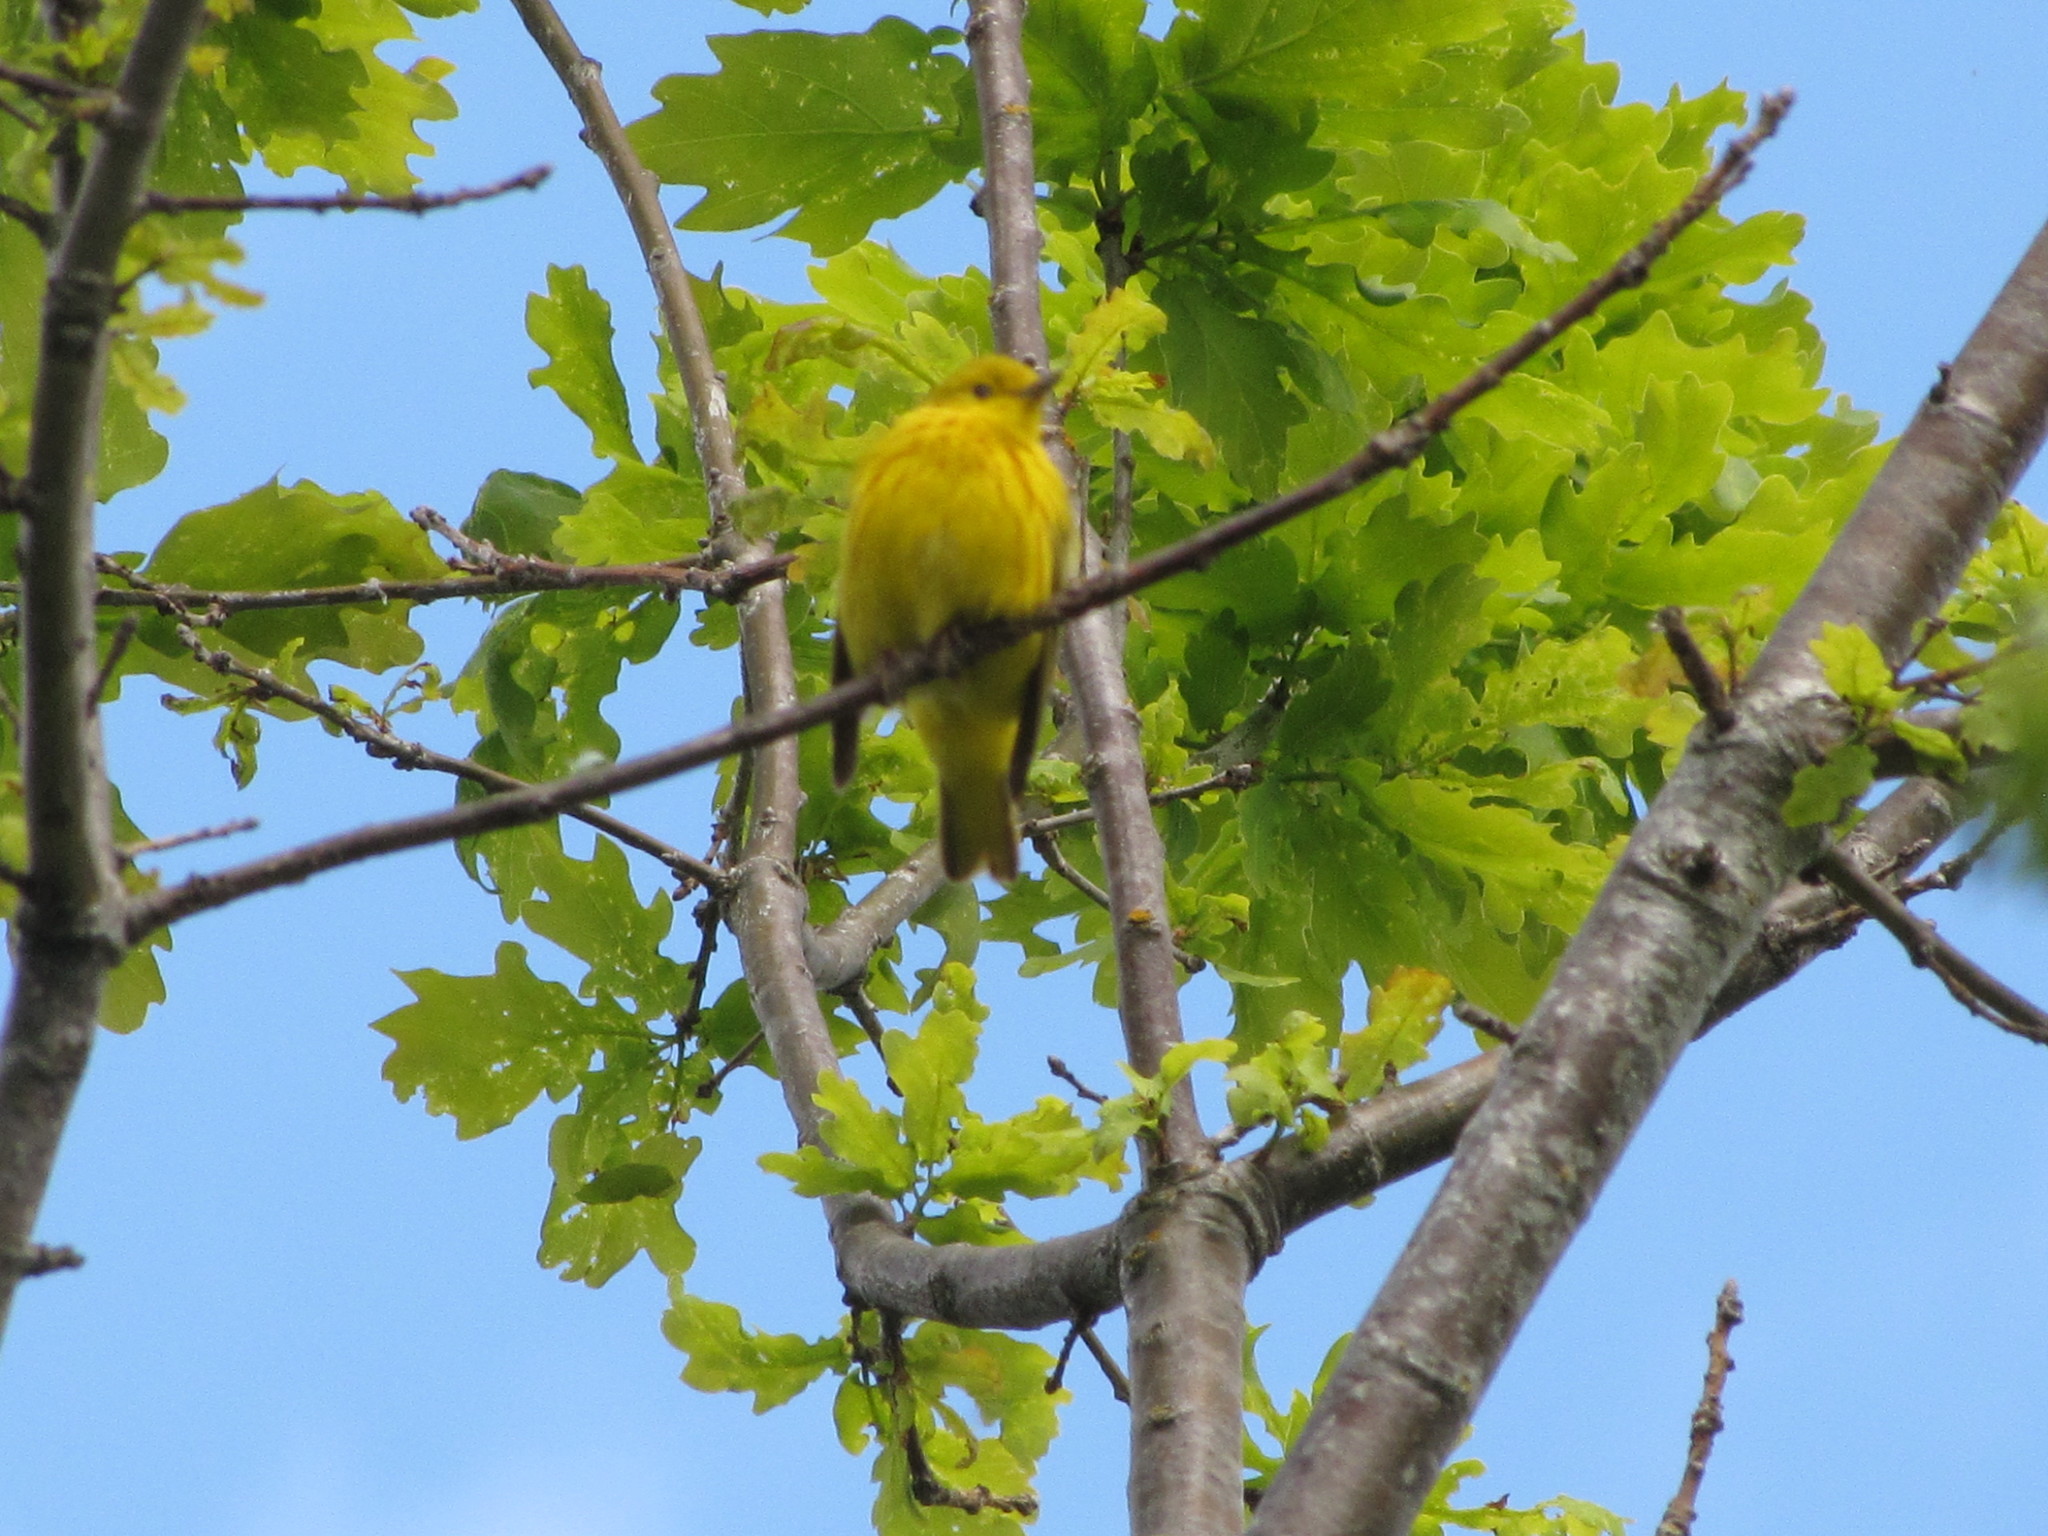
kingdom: Animalia
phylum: Chordata
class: Aves
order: Passeriformes
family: Parulidae
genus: Setophaga
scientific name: Setophaga petechia
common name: Yellow warbler
